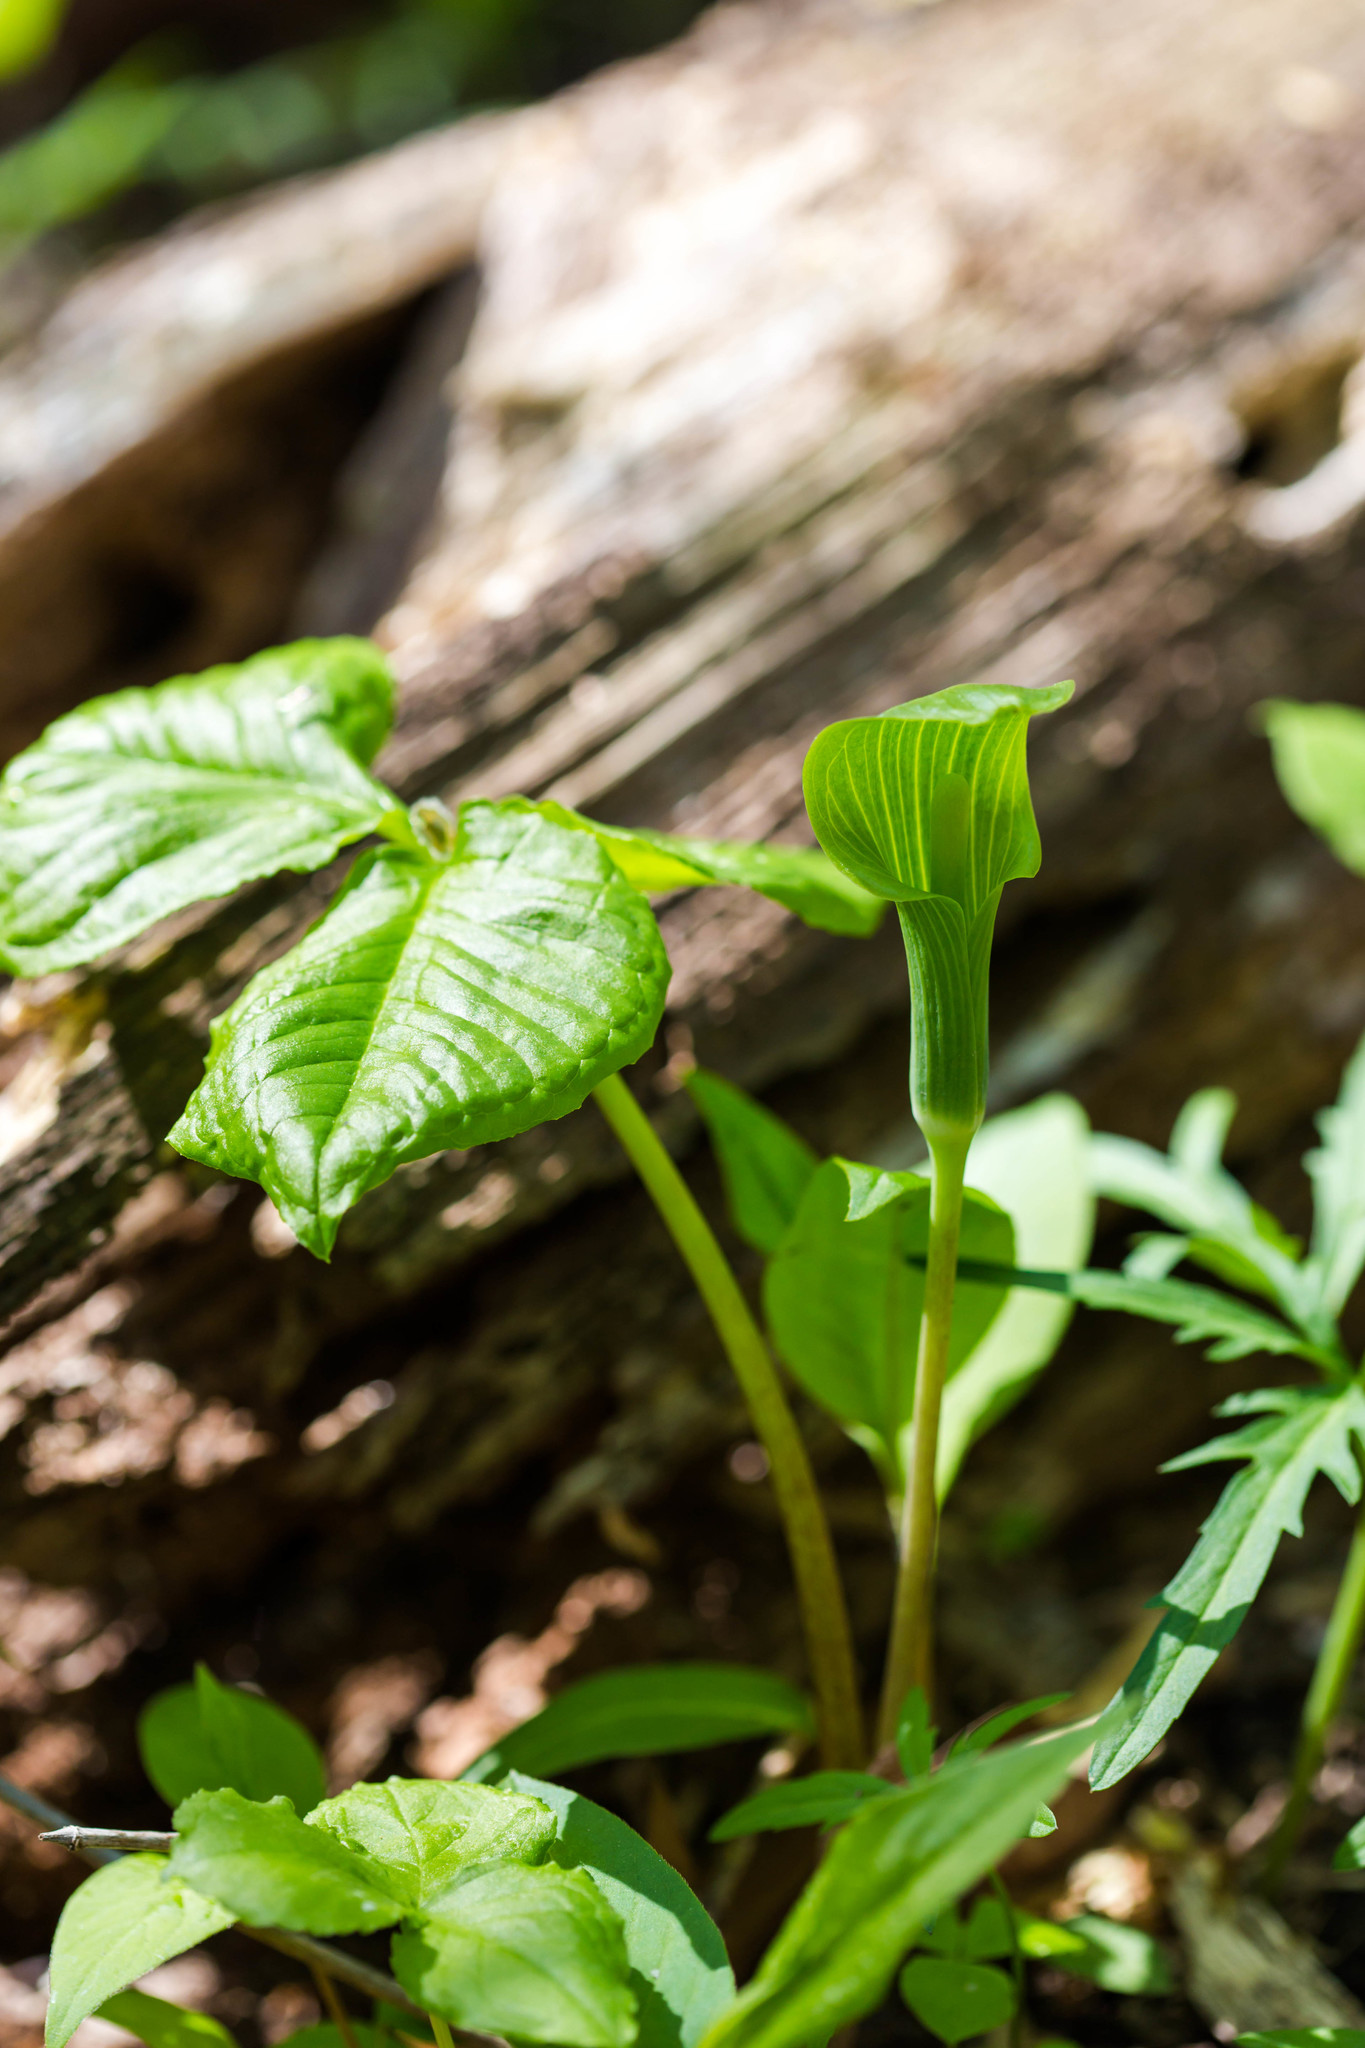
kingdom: Plantae
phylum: Tracheophyta
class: Liliopsida
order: Alismatales
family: Araceae
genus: Arisaema
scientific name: Arisaema triphyllum
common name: Jack-in-the-pulpit
